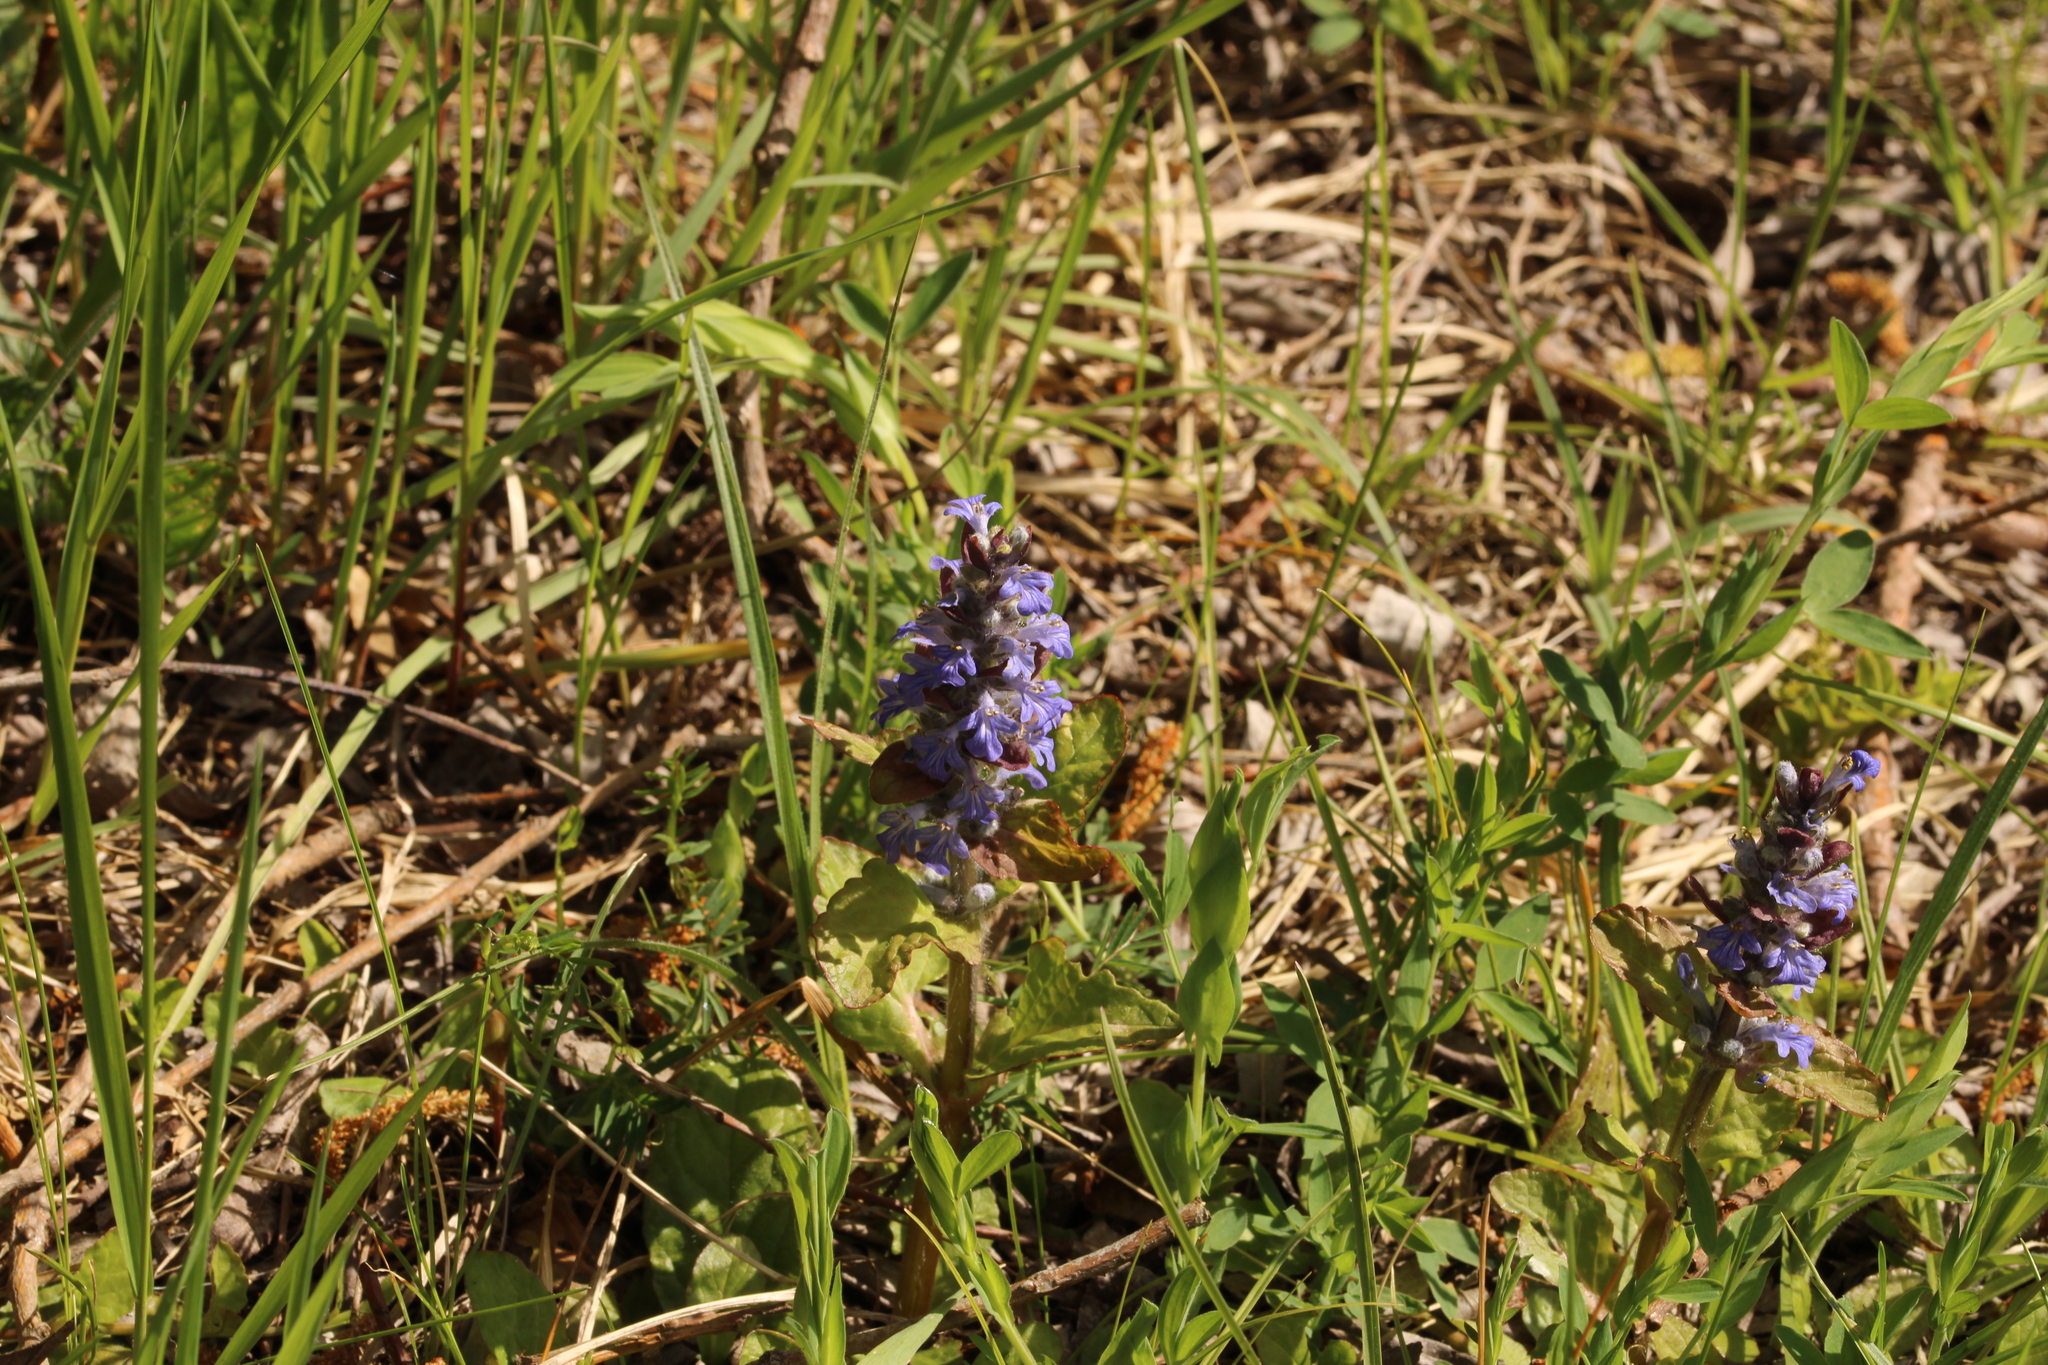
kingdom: Plantae
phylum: Tracheophyta
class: Magnoliopsida
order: Lamiales
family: Lamiaceae
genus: Ajuga
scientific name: Ajuga reptans
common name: Bugle
